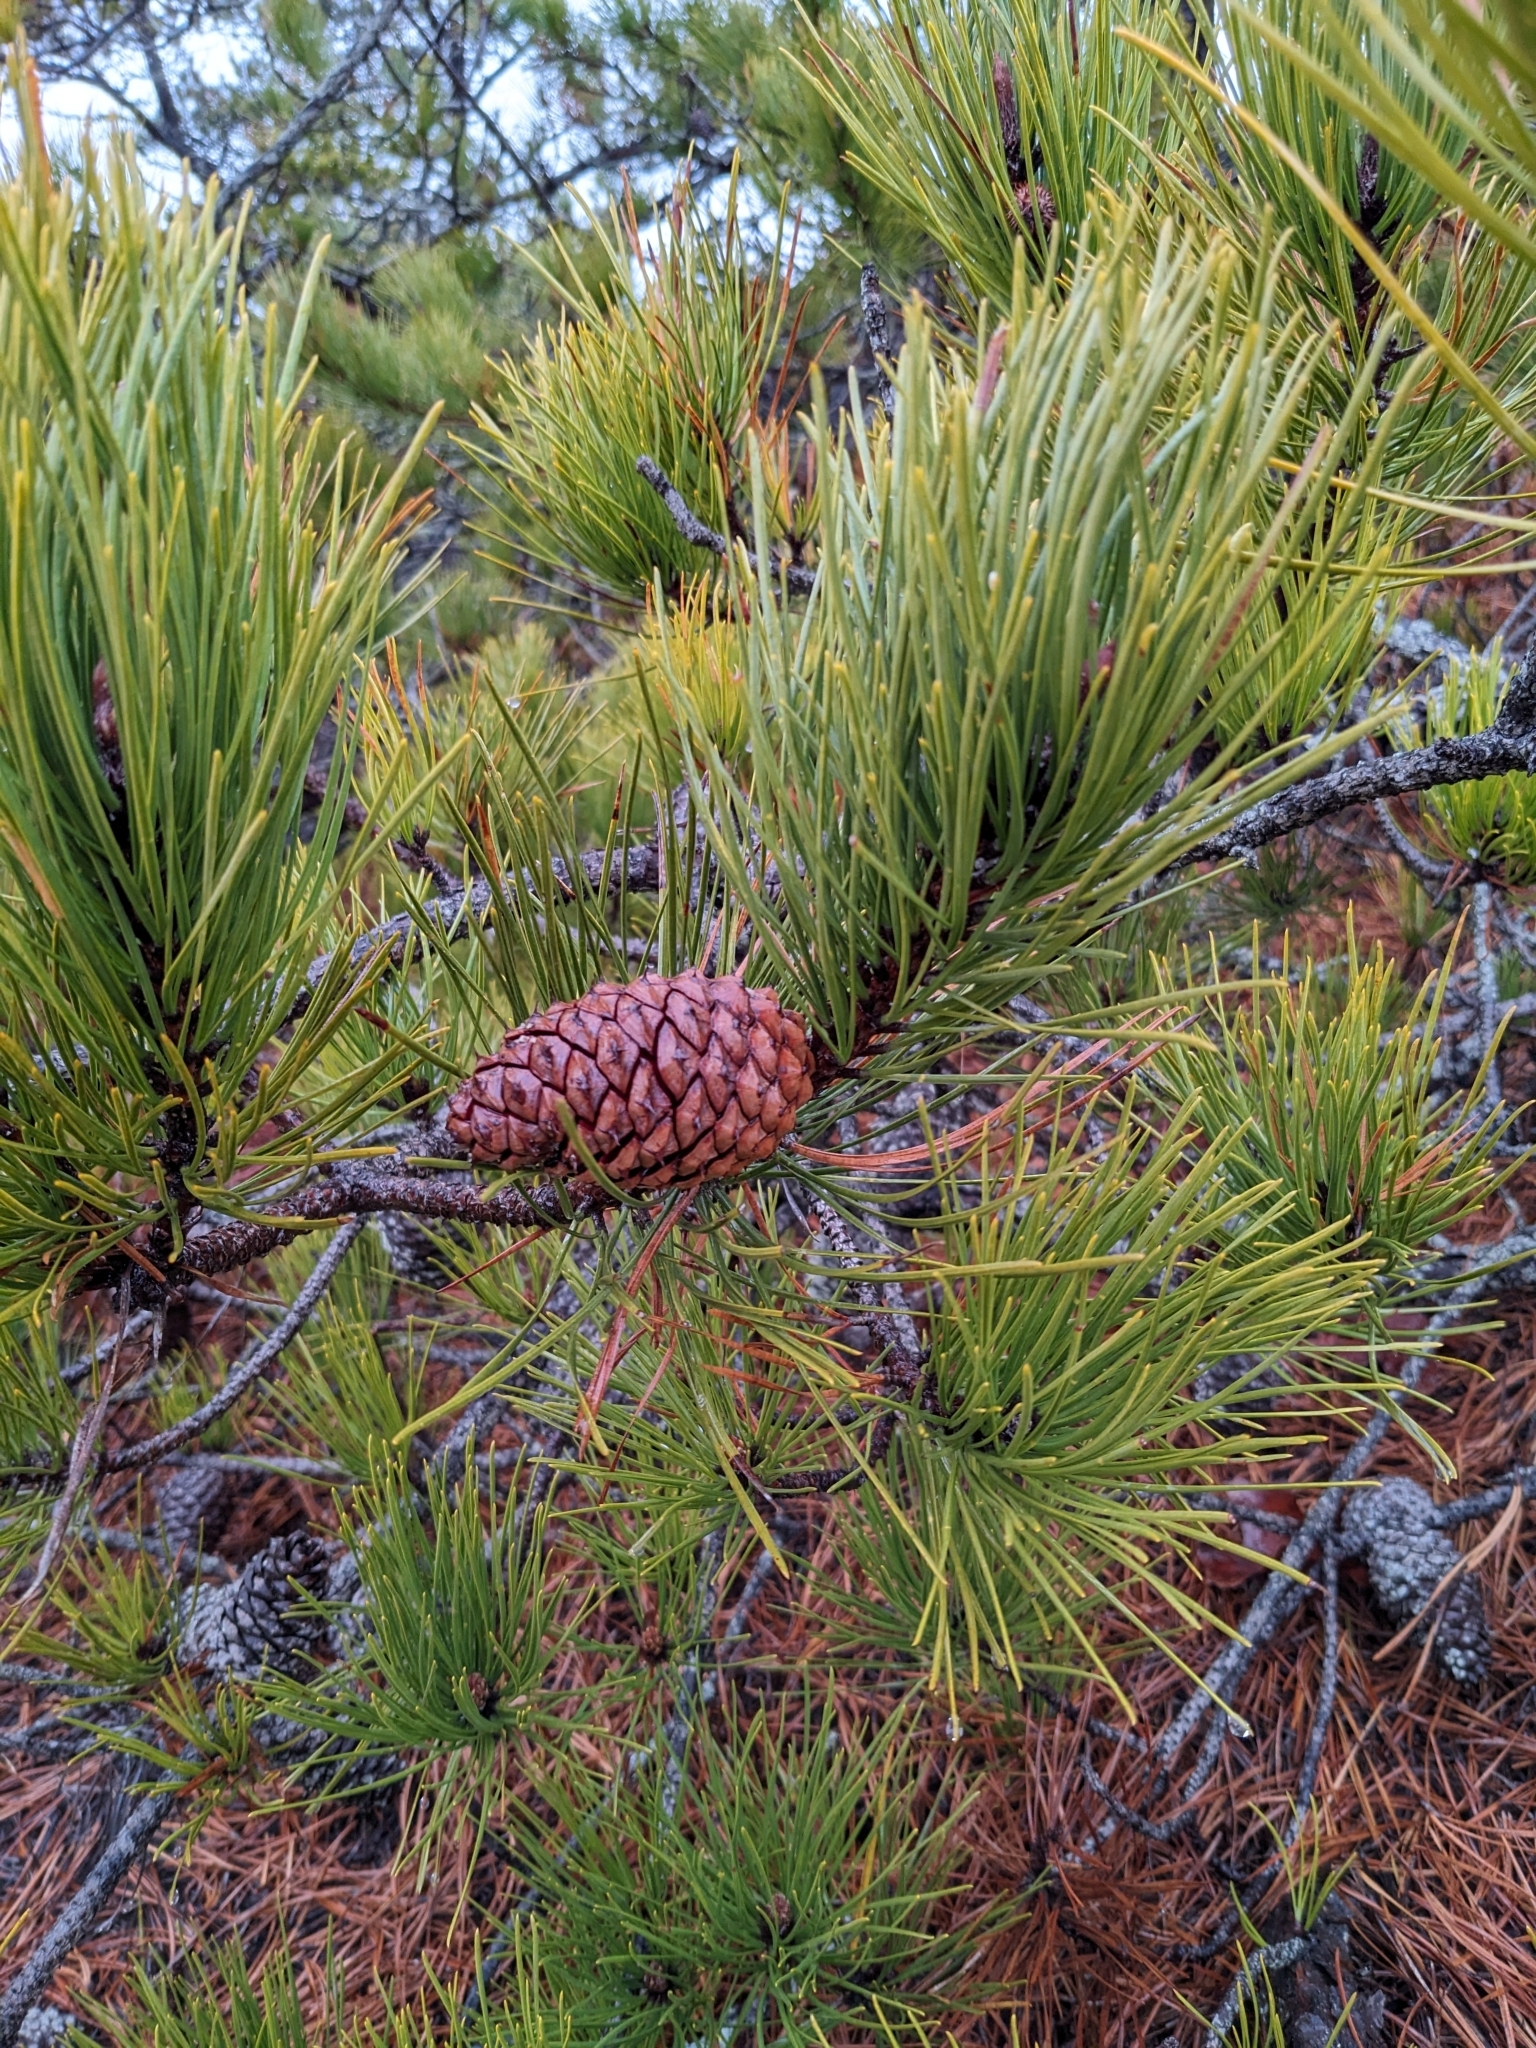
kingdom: Plantae
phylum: Tracheophyta
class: Pinopsida
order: Pinales
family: Pinaceae
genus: Pinus
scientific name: Pinus rigida
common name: Pitch pine
